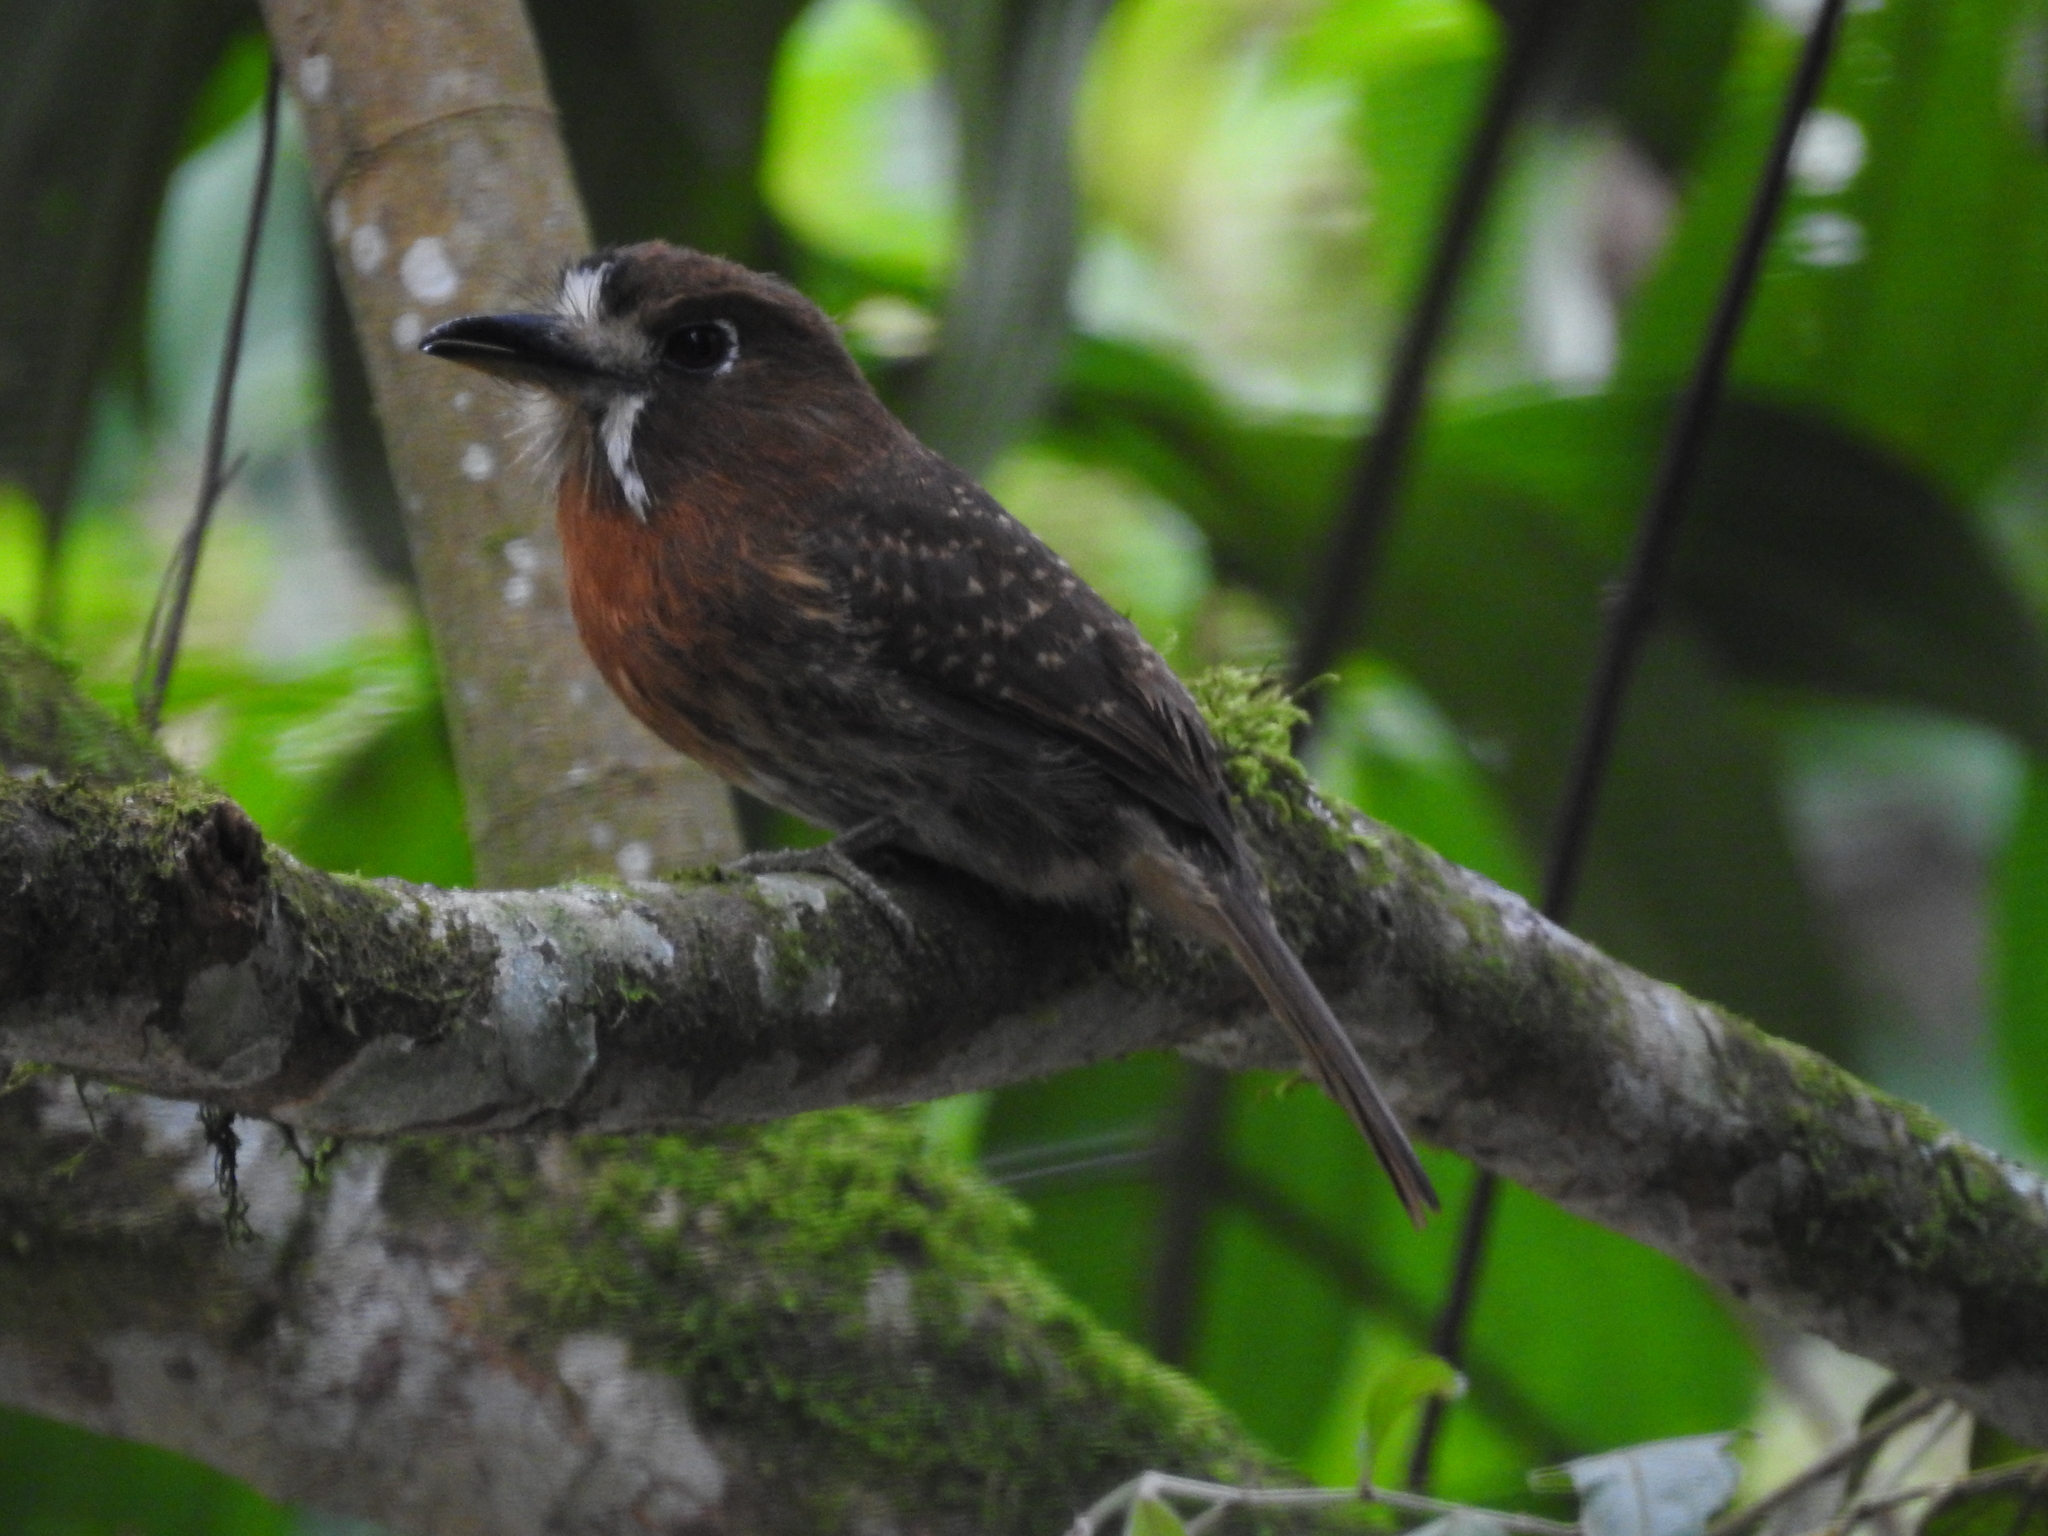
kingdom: Animalia
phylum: Chordata
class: Aves
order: Piciformes
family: Bucconidae
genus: Malacoptila
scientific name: Malacoptila mystacalis
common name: Moustached puffbird
